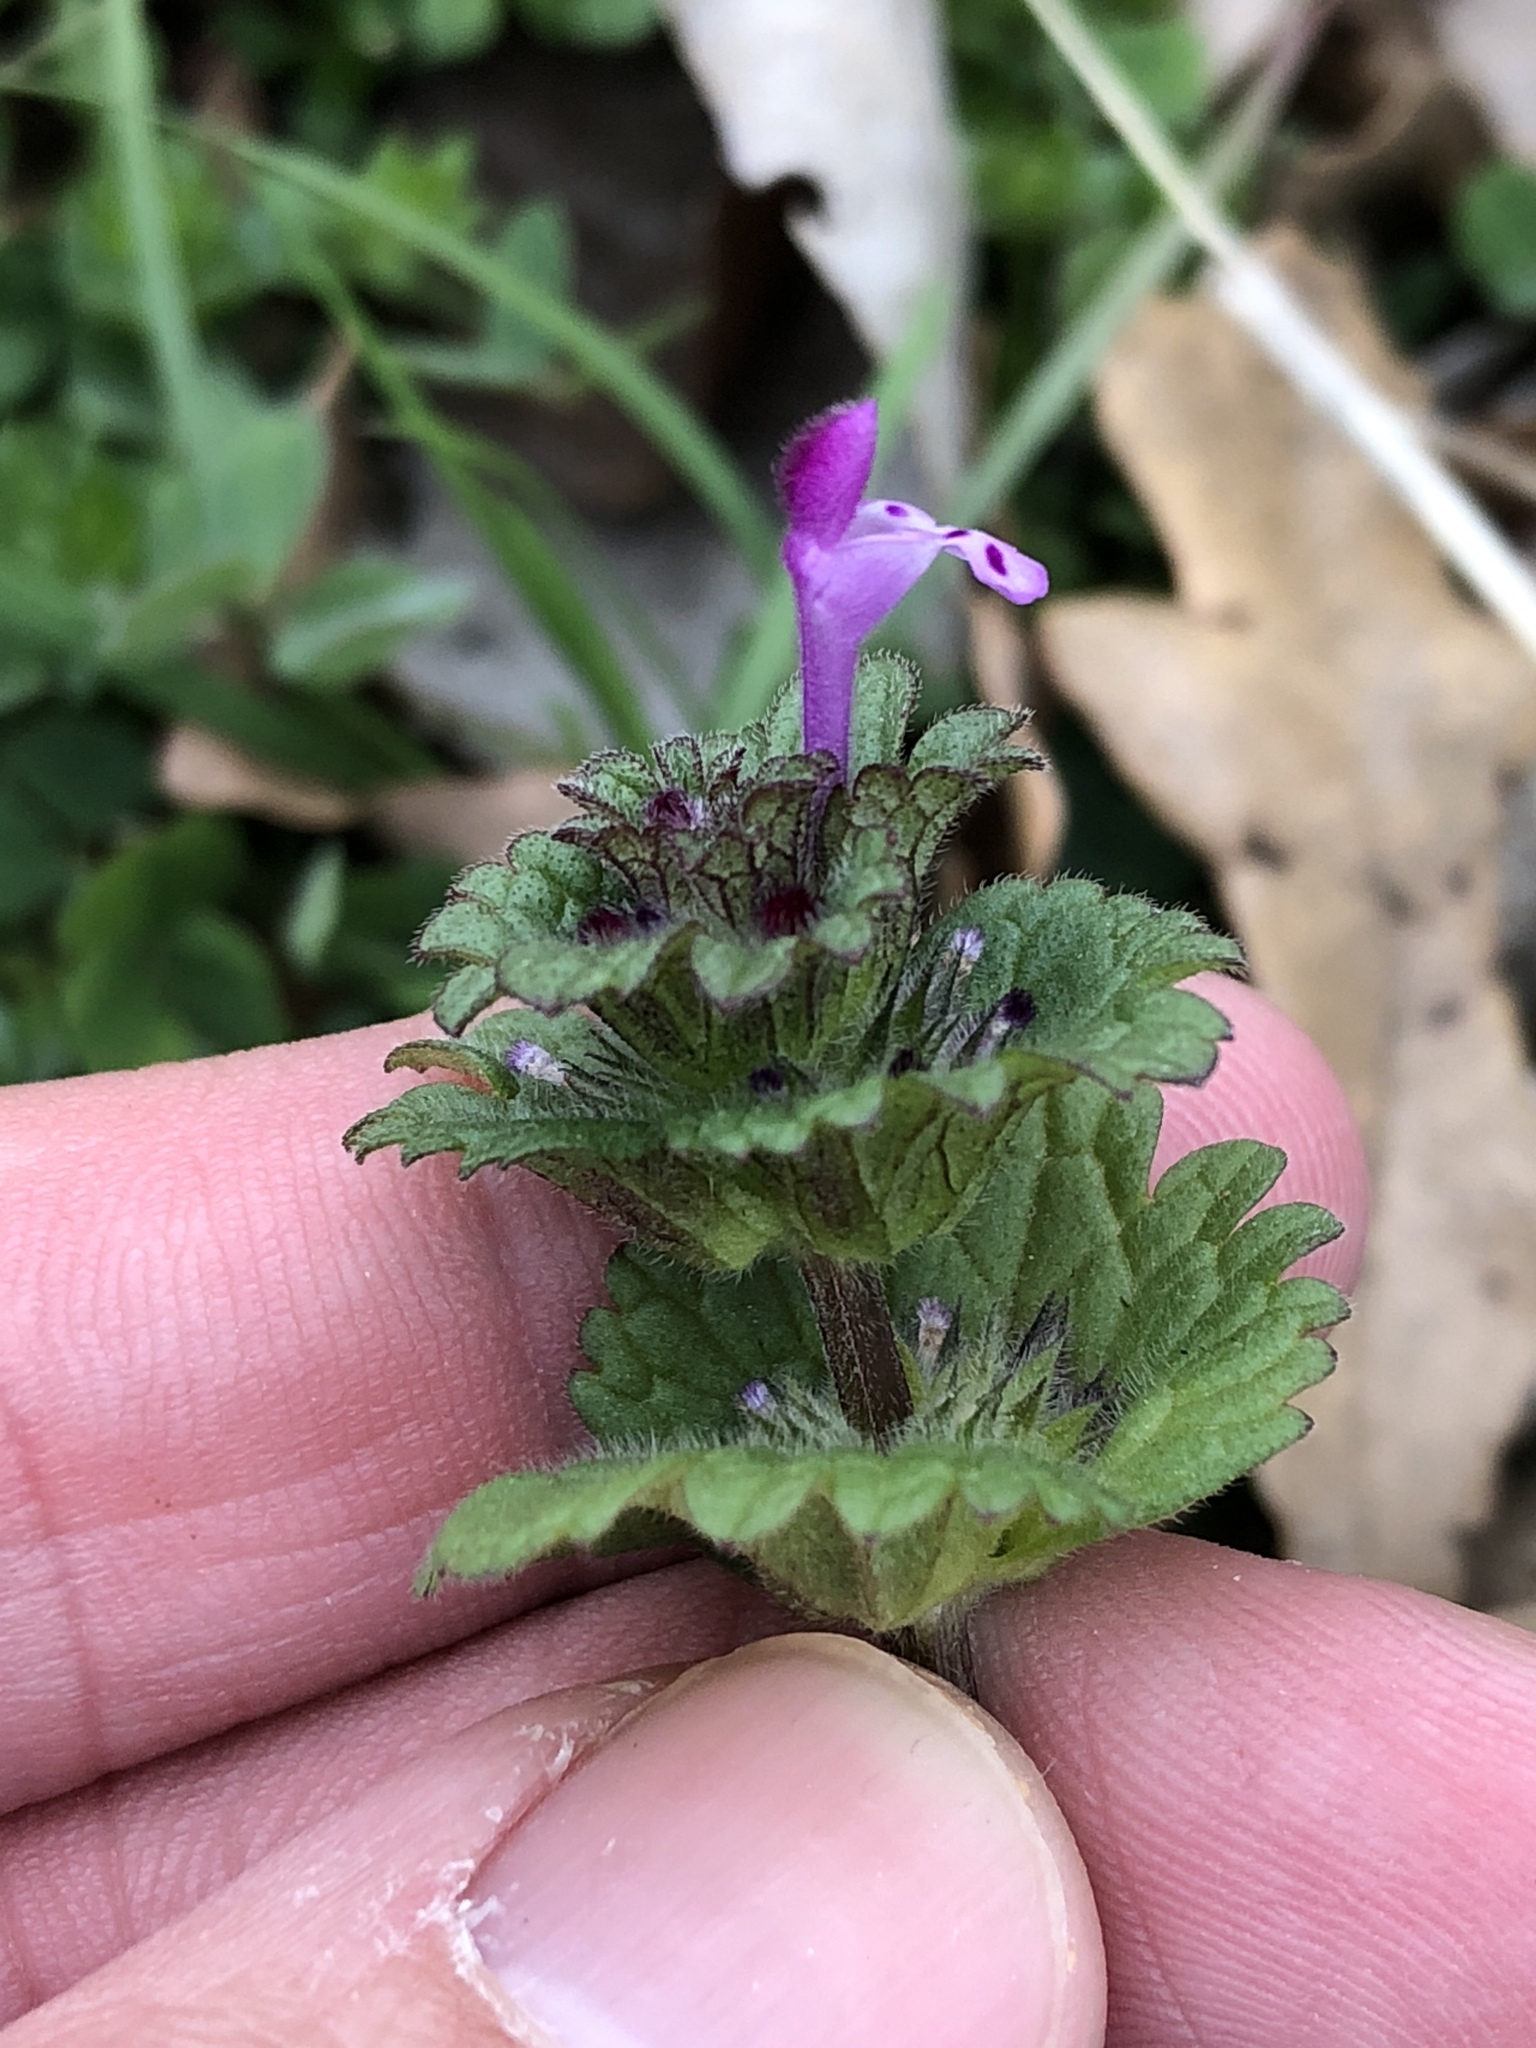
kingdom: Plantae
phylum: Tracheophyta
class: Magnoliopsida
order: Lamiales
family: Lamiaceae
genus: Lamium
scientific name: Lamium amplexicaule
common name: Henbit dead-nettle
